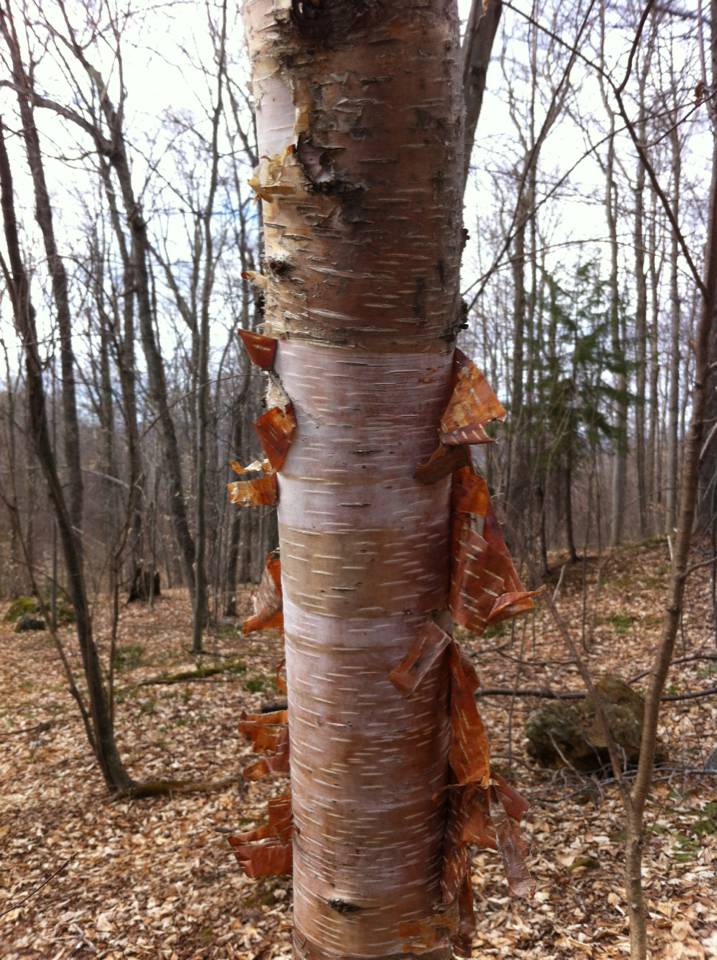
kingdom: Plantae
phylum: Tracheophyta
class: Magnoliopsida
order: Fagales
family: Betulaceae
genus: Betula
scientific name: Betula papyrifera
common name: Paper birch
